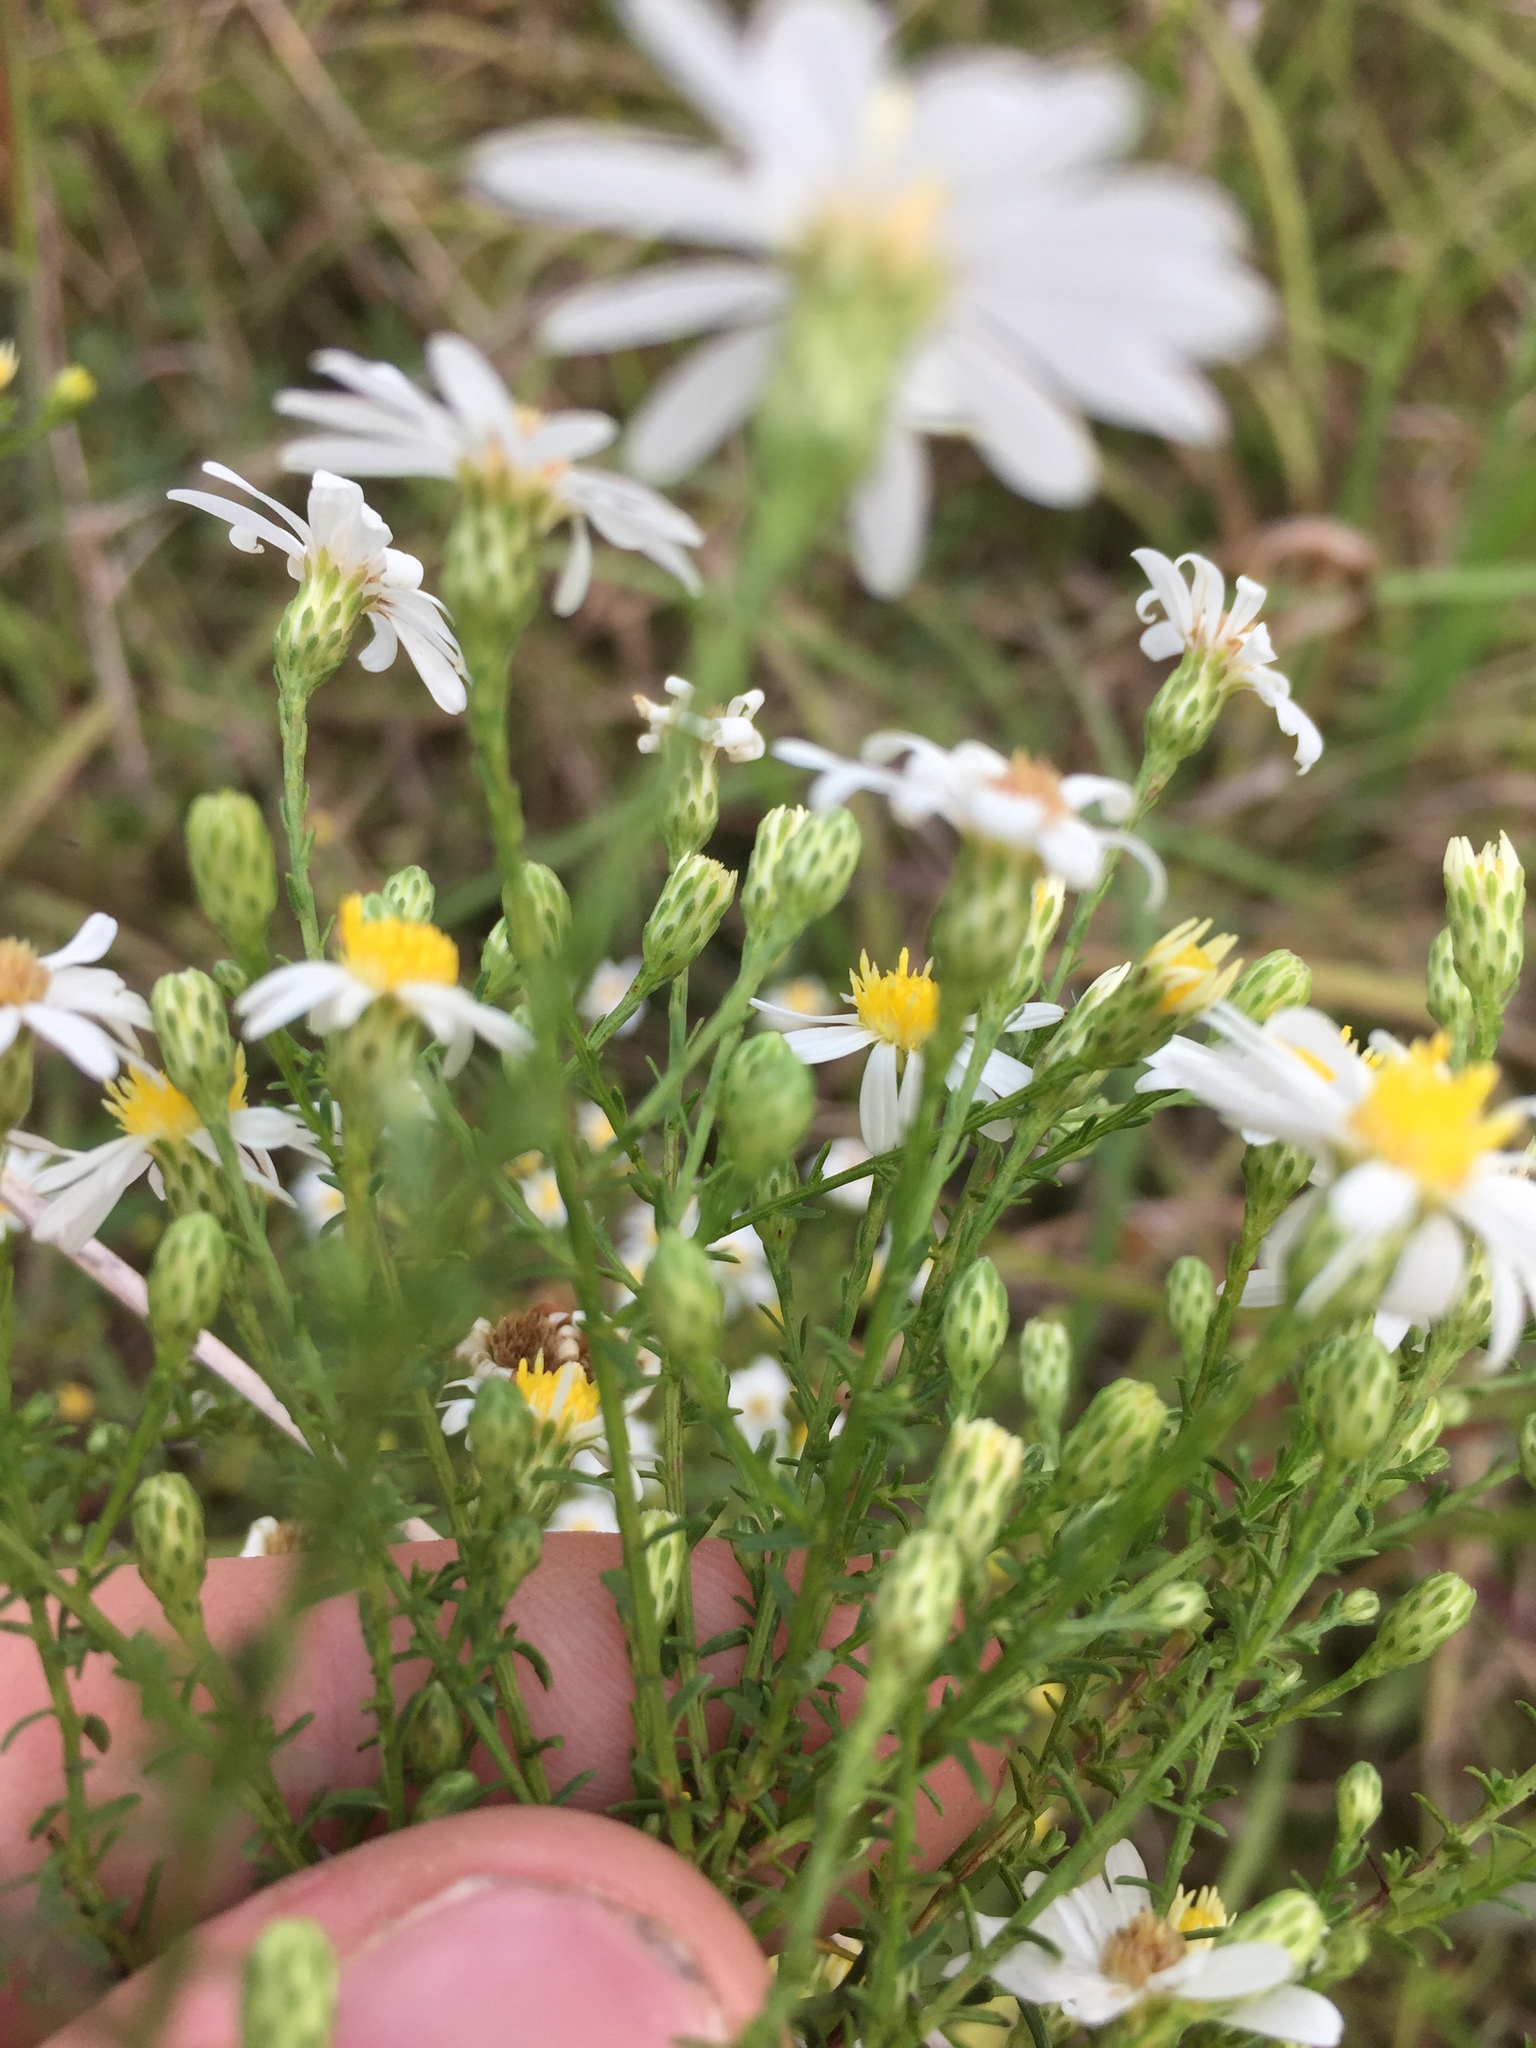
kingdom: Plantae
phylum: Tracheophyta
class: Magnoliopsida
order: Asterales
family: Asteraceae
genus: Symphyotrichum
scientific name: Symphyotrichum dumosum
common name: Bushy aster
